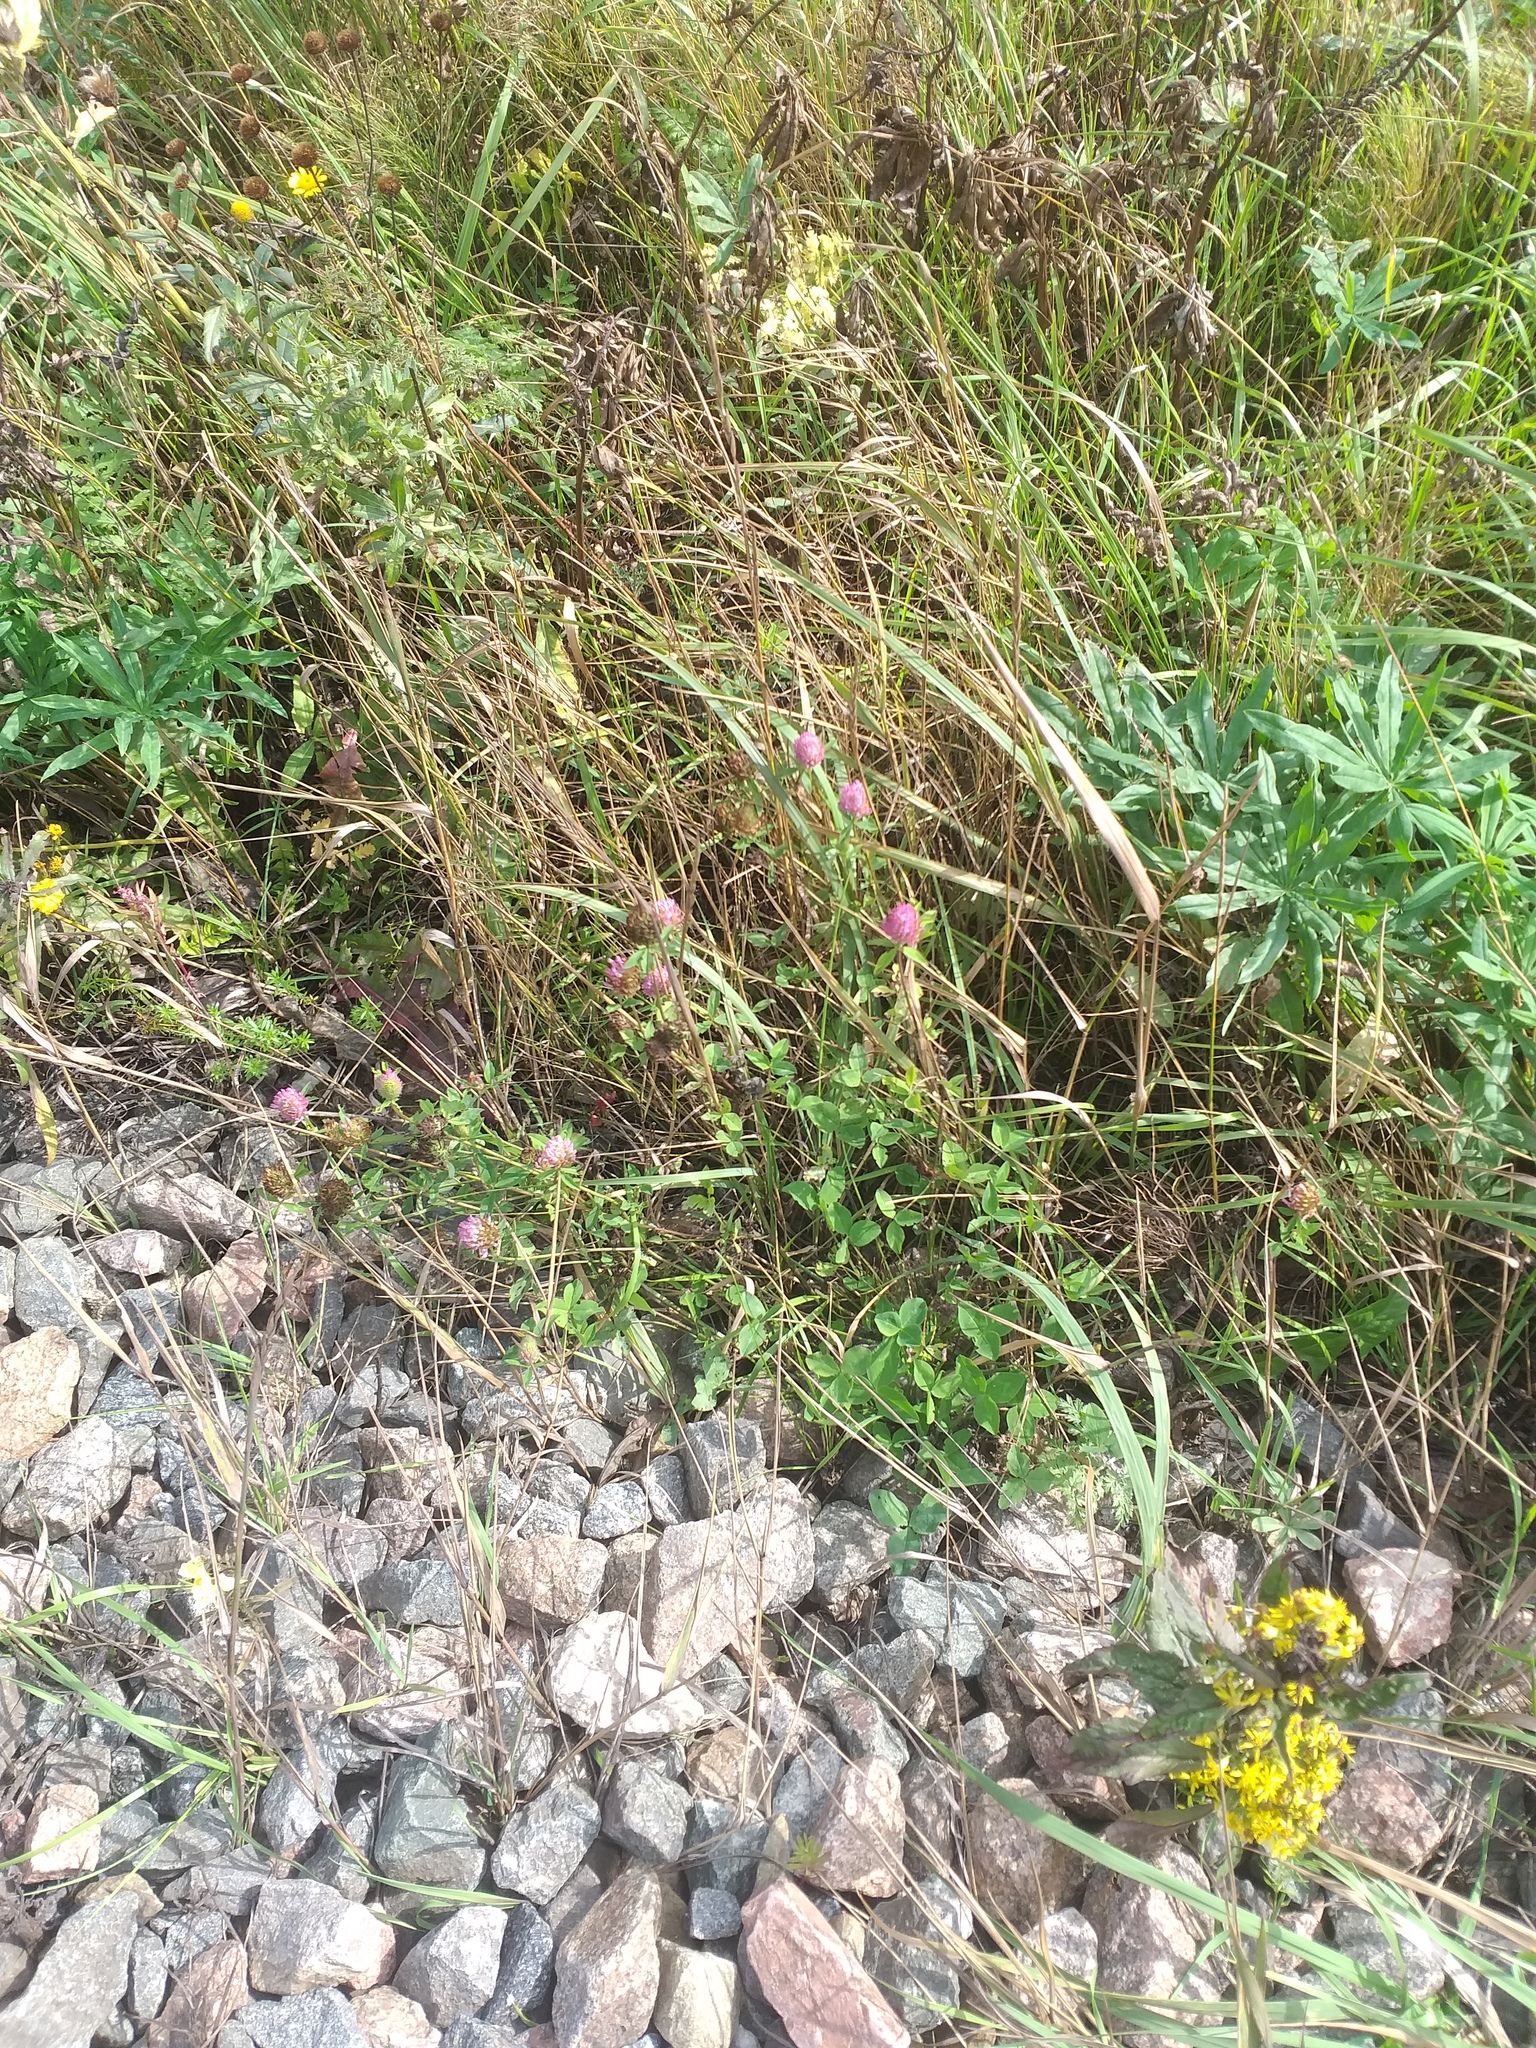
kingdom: Plantae
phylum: Tracheophyta
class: Magnoliopsida
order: Fabales
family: Fabaceae
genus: Trifolium
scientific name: Trifolium pratense
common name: Red clover
